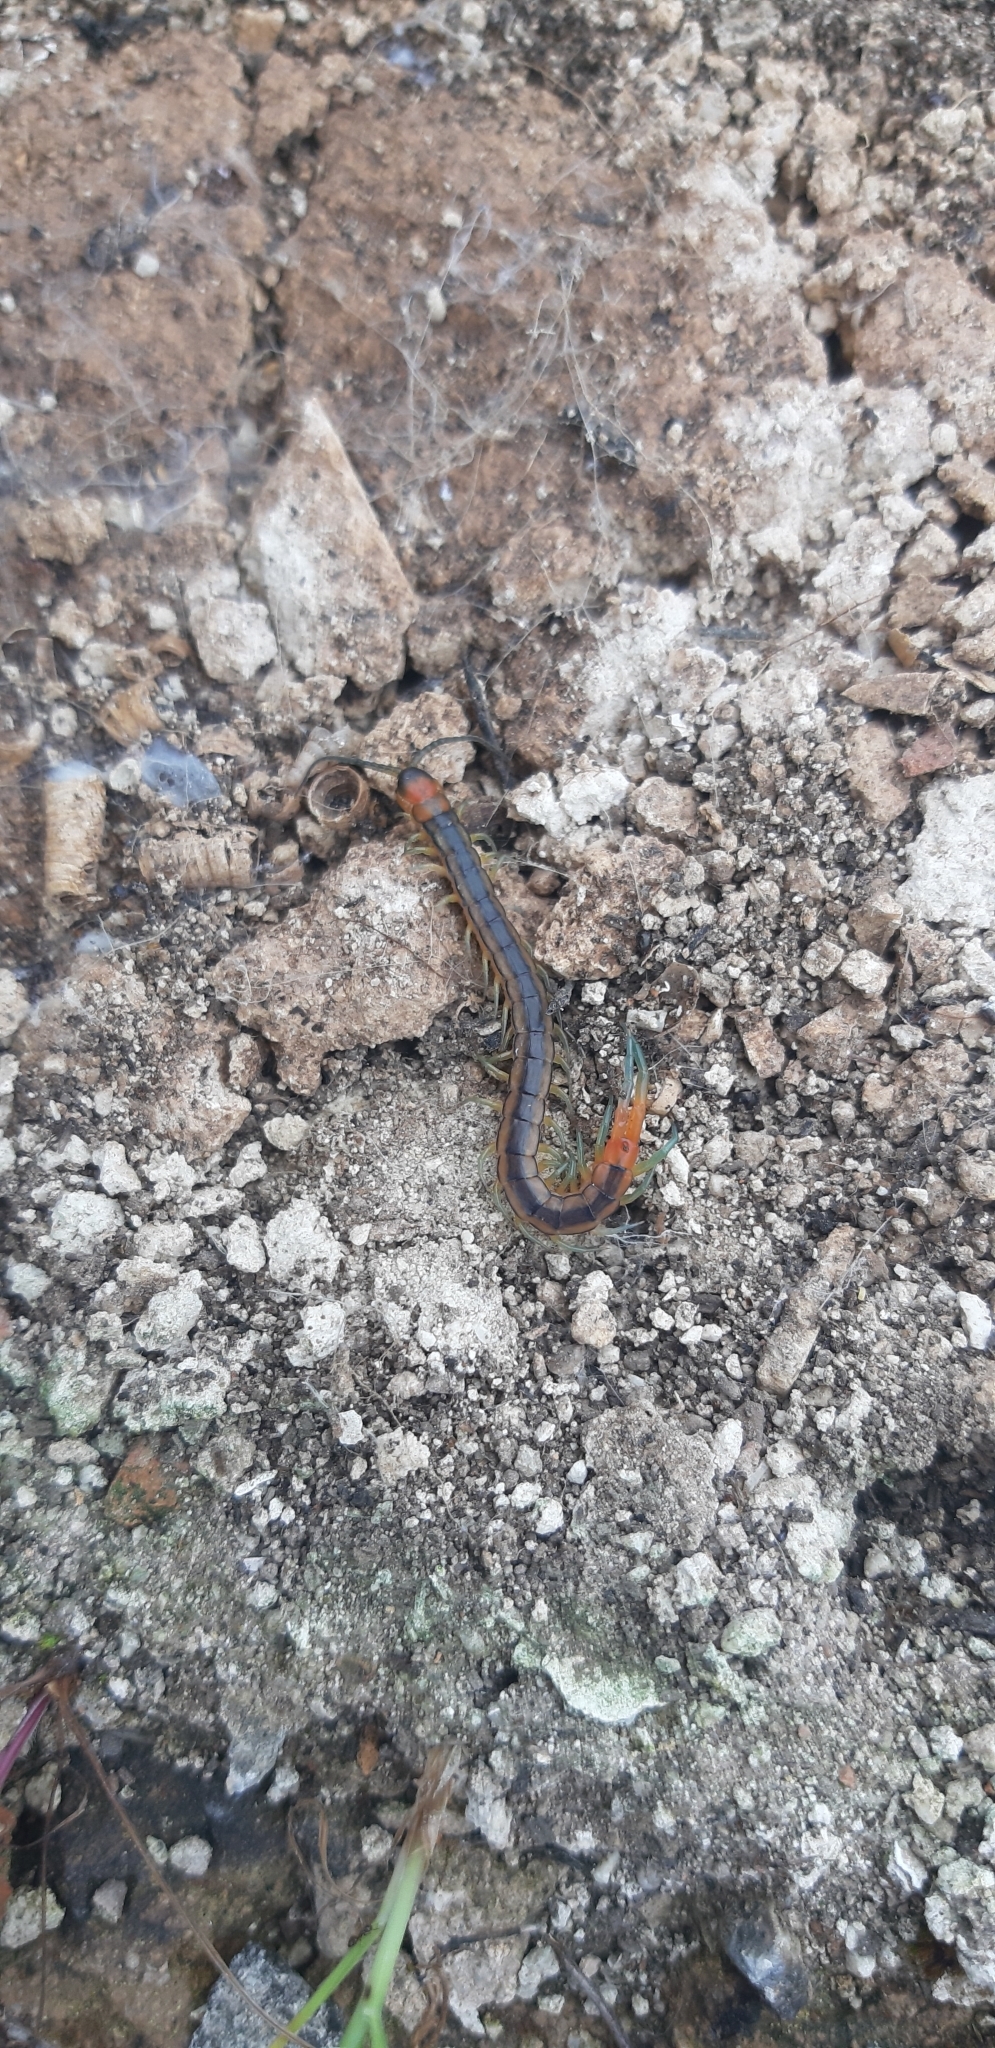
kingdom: Animalia
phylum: Arthropoda
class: Chilopoda
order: Scolopendromorpha
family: Scolopendridae
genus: Scolopendra
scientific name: Scolopendra oraniensis
